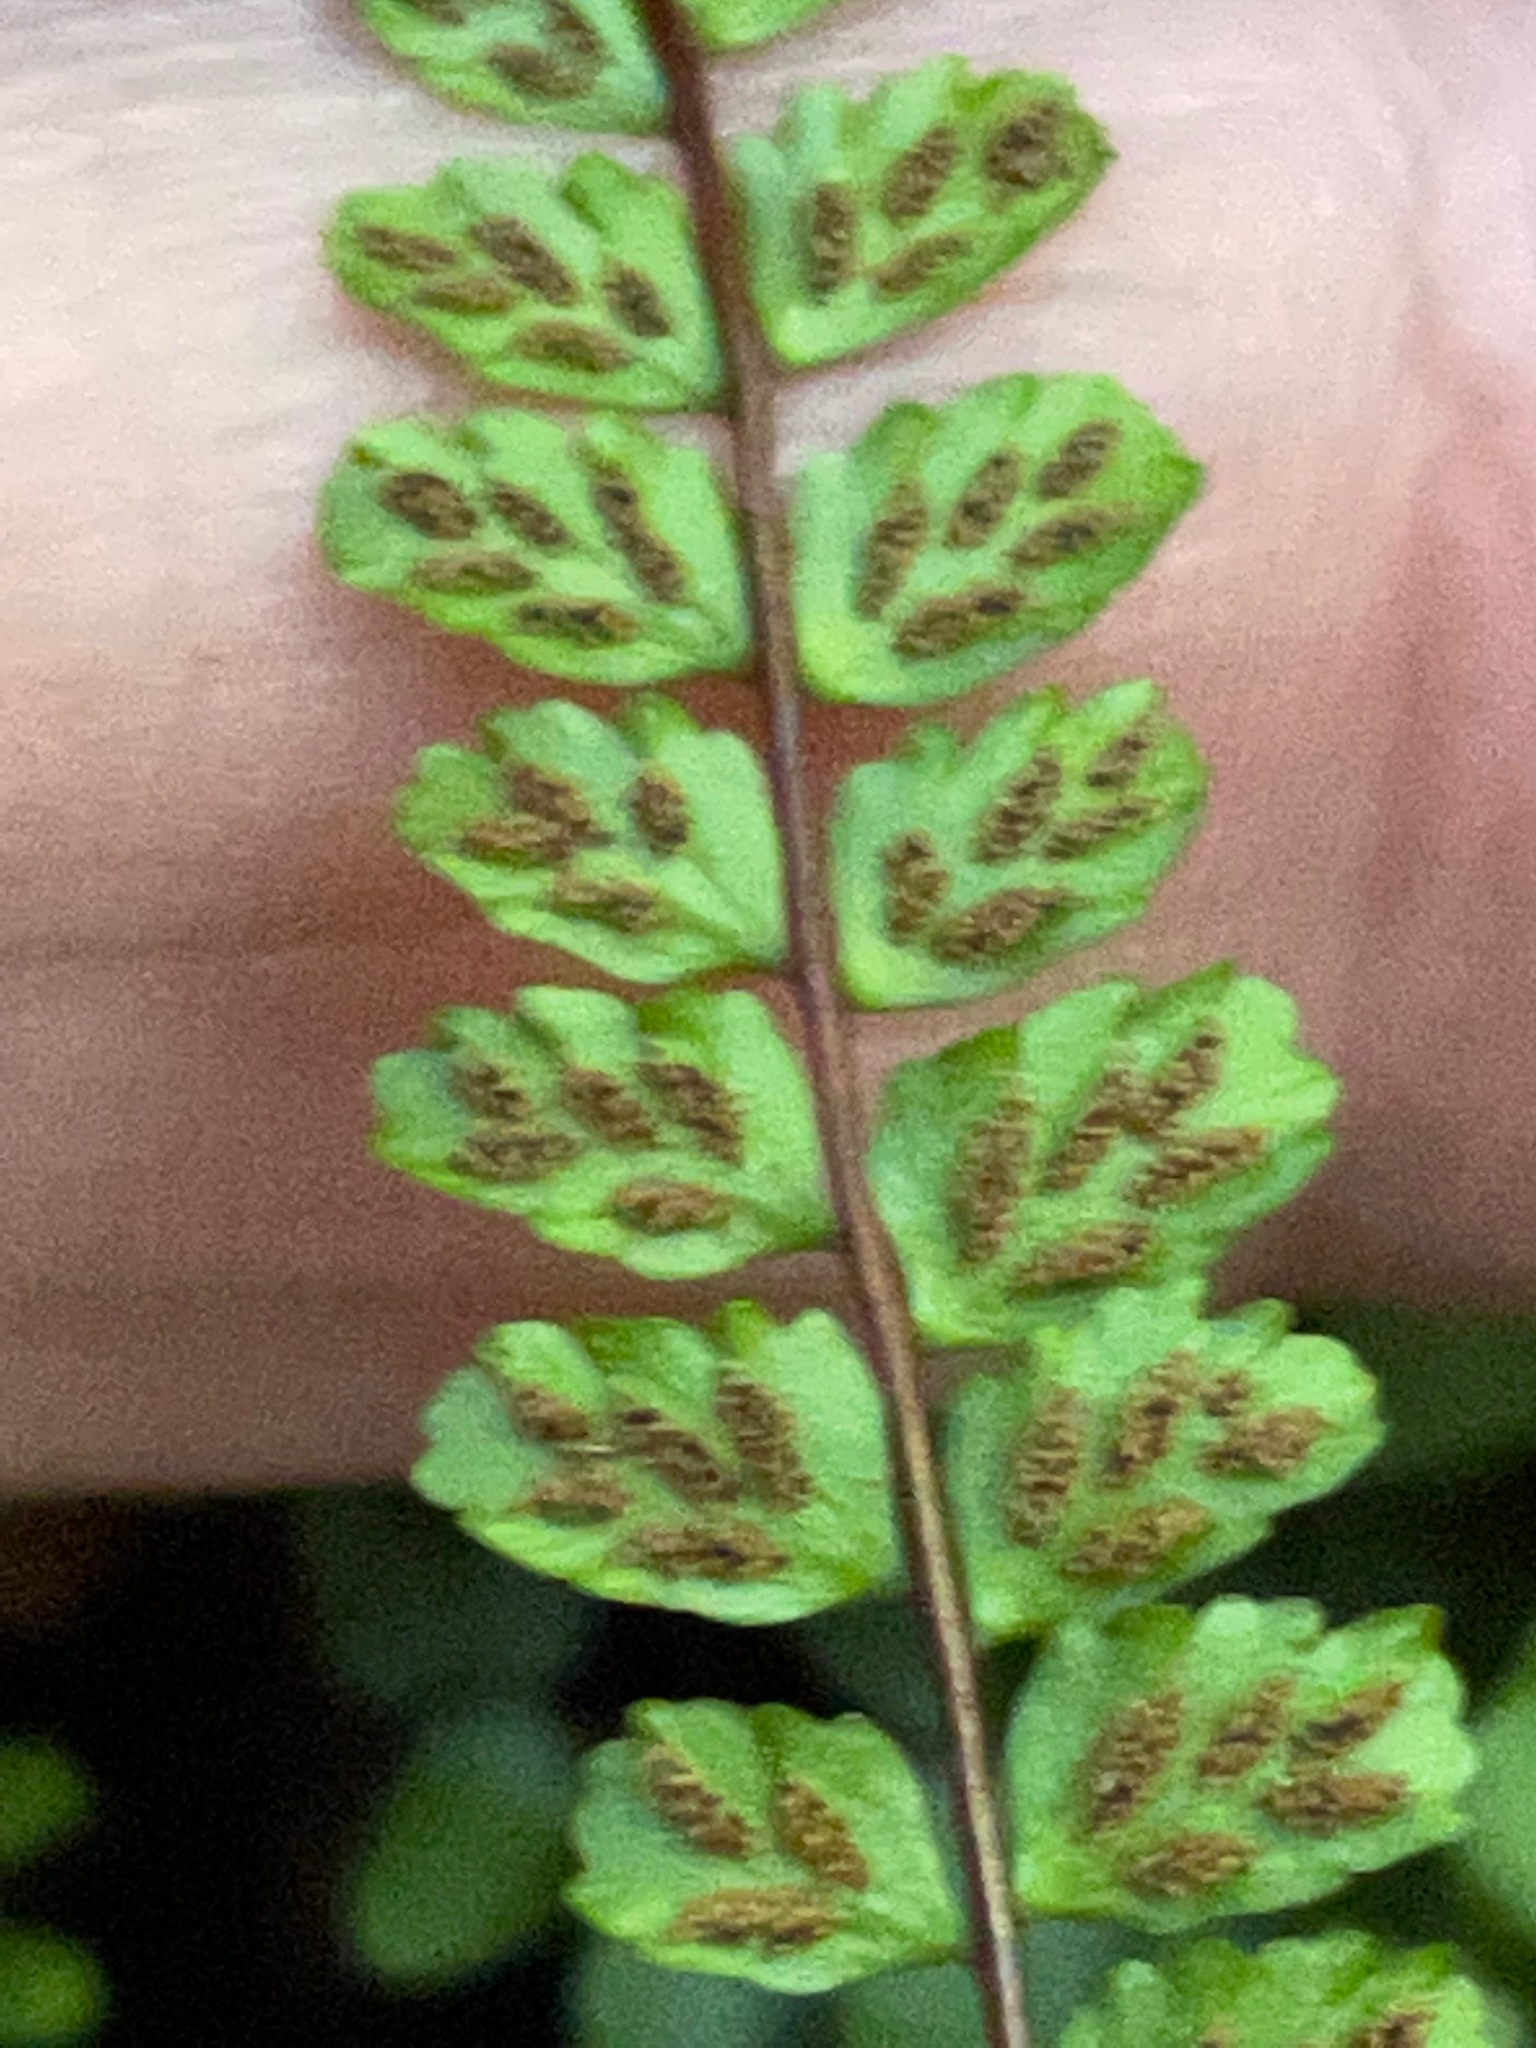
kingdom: Plantae
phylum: Tracheophyta
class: Polypodiopsida
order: Polypodiales
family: Aspleniaceae
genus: Asplenium
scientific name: Asplenium trichomanes
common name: Maidenhair spleenwort
